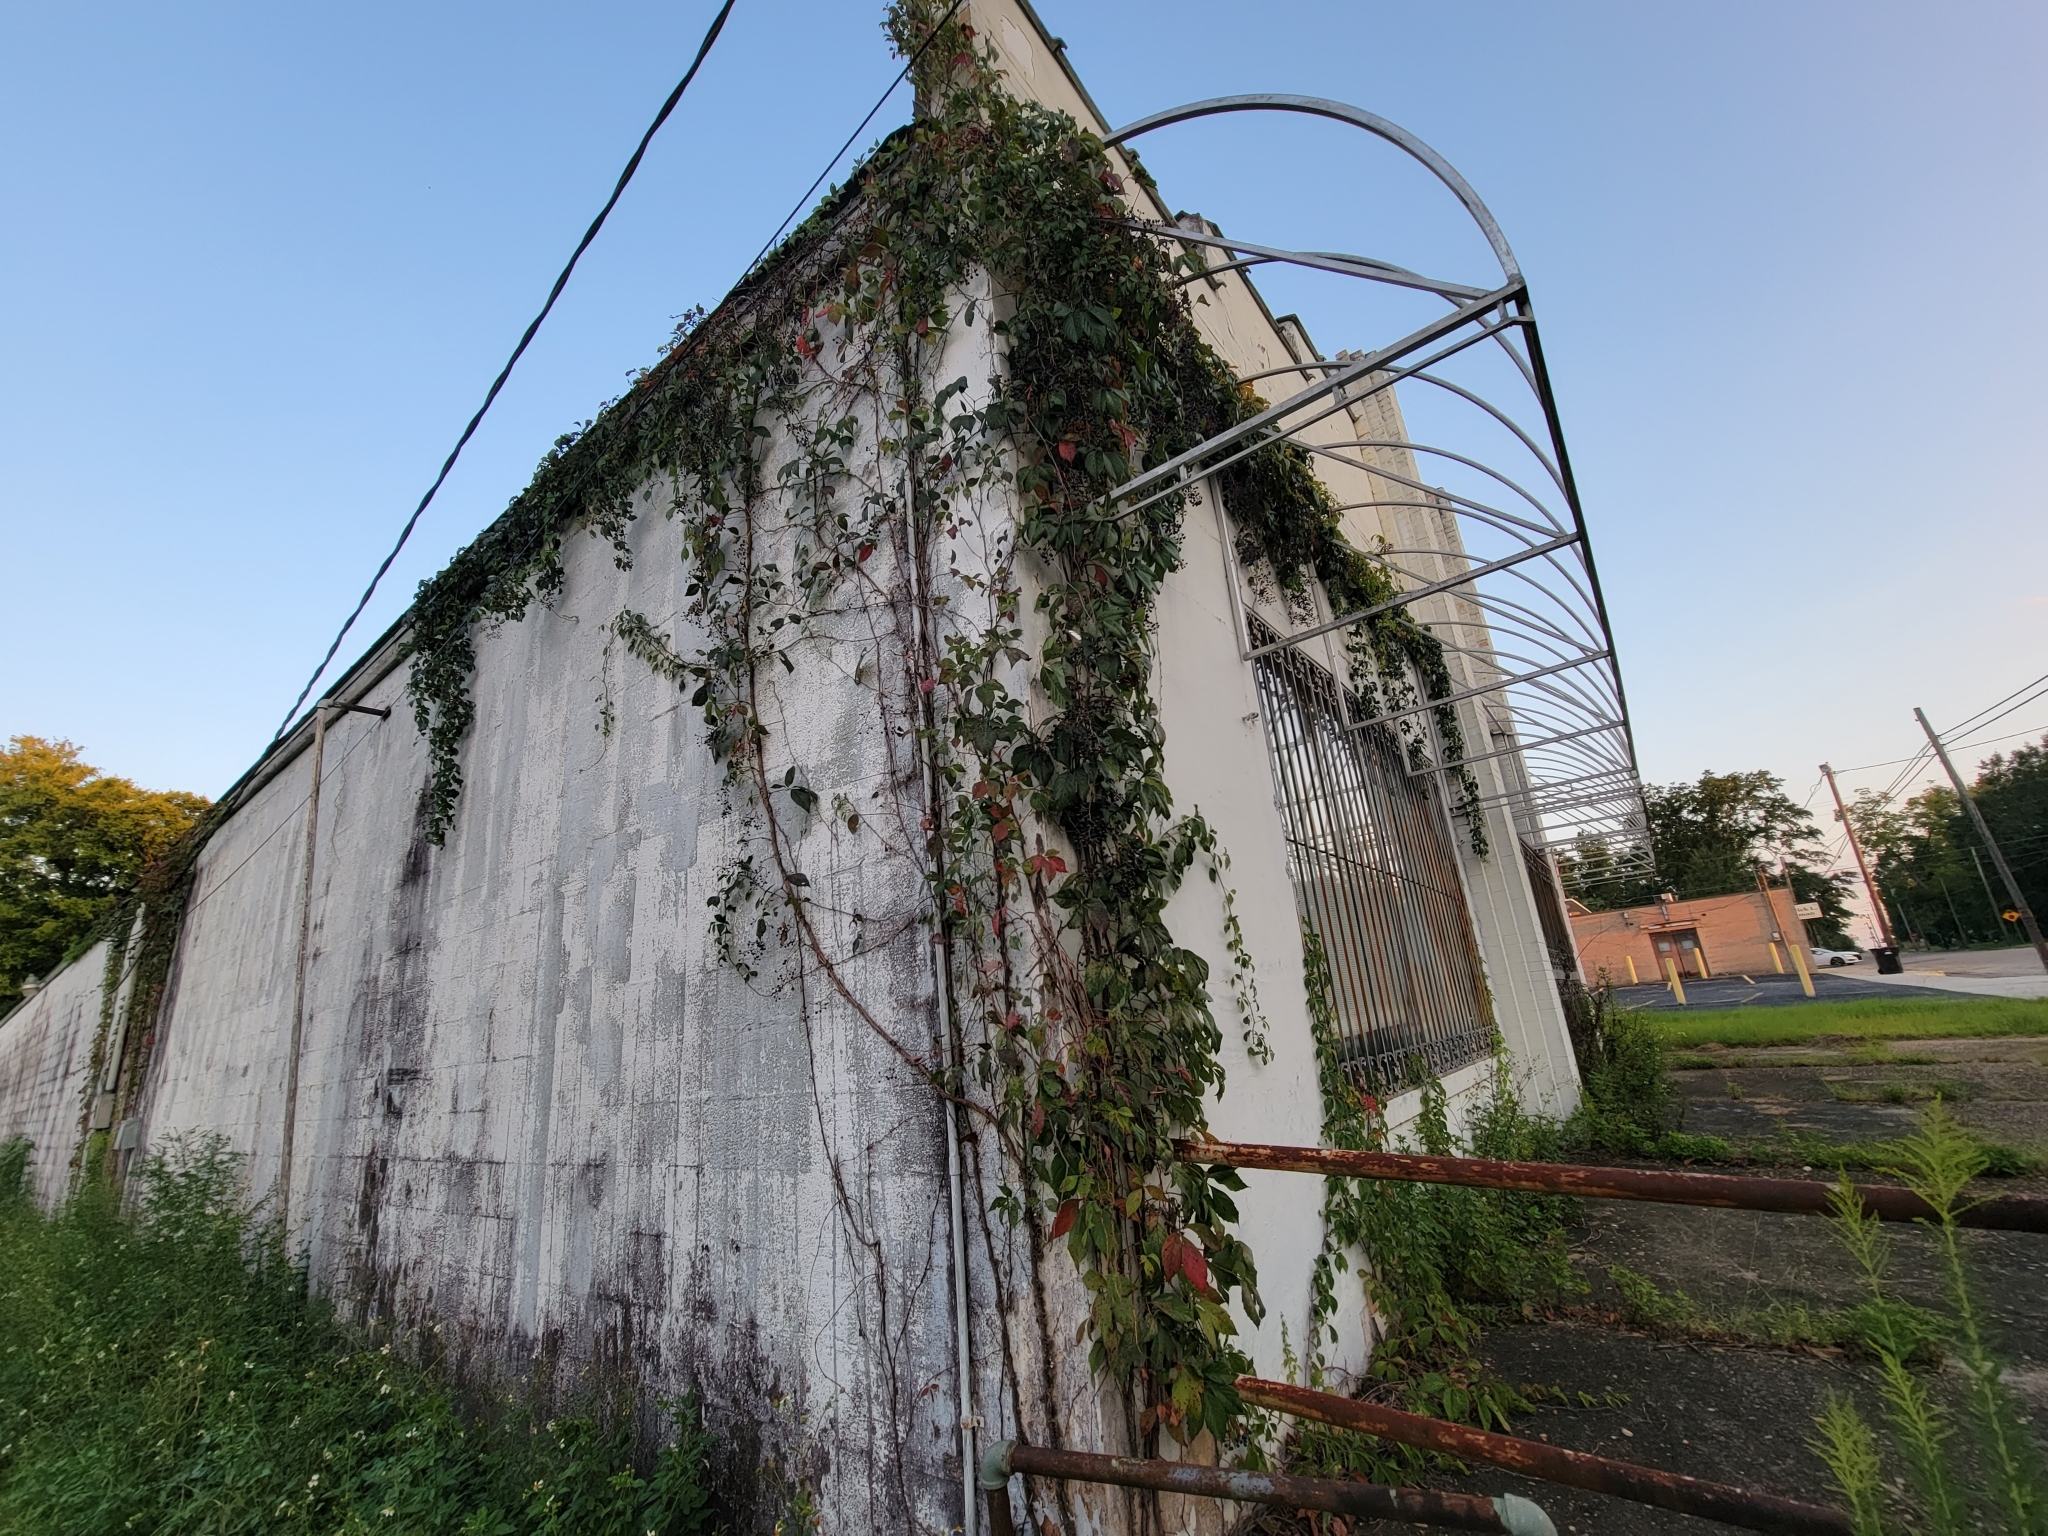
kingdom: Plantae
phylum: Tracheophyta
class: Magnoliopsida
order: Vitales
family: Vitaceae
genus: Parthenocissus
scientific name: Parthenocissus quinquefolia
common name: Virginia-creeper
